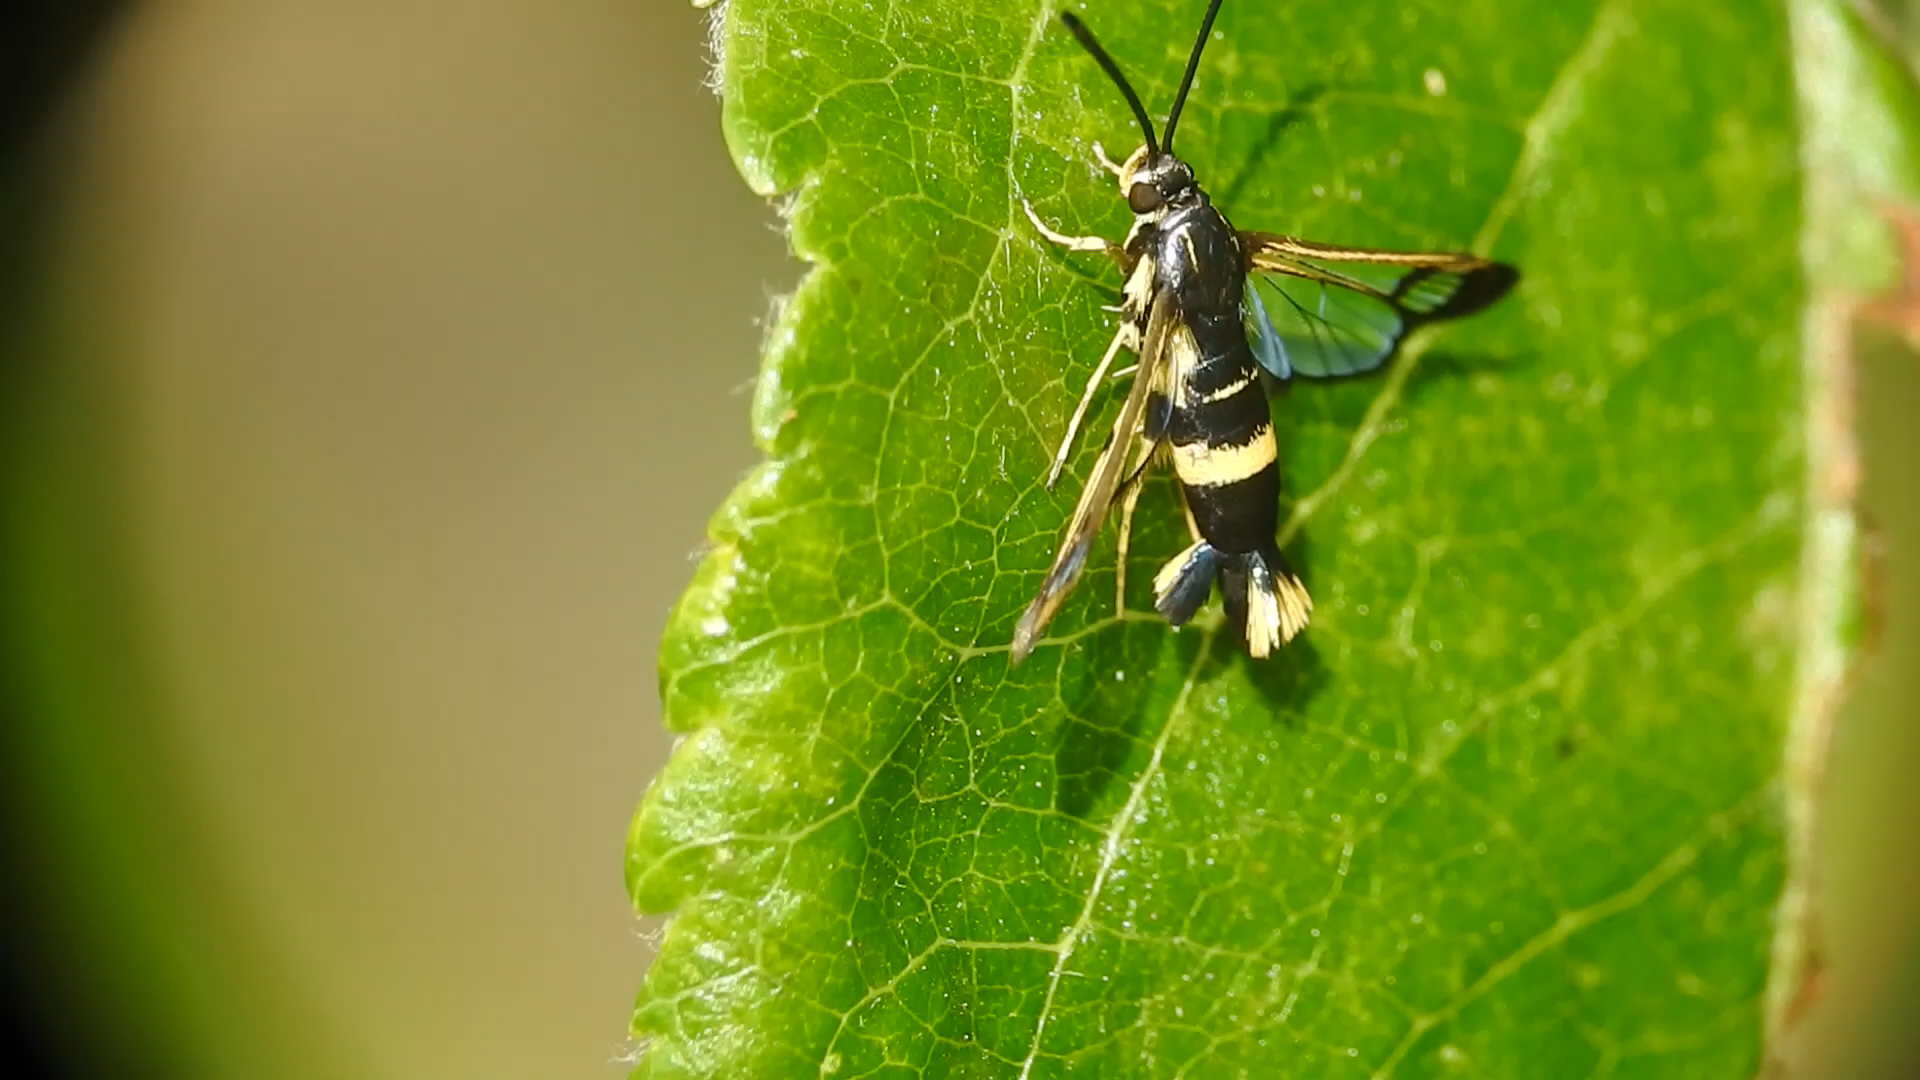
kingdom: Animalia
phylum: Arthropoda
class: Insecta
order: Lepidoptera
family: Sesiidae
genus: Synanthedon
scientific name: Synanthedon scitula
